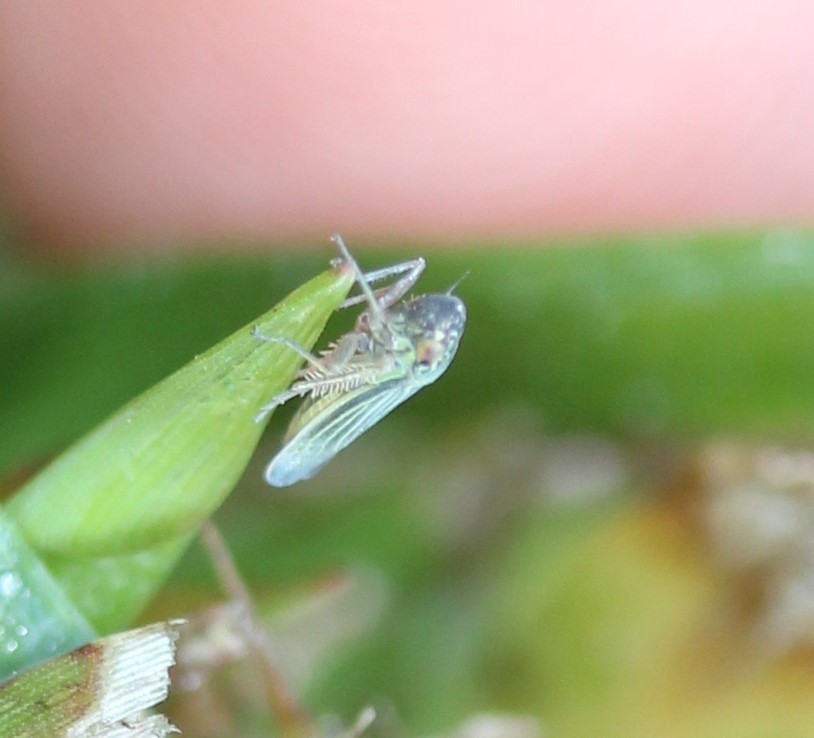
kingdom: Animalia
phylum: Arthropoda
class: Insecta
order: Hemiptera
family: Cicadellidae
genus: Xyphon
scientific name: Xyphon reticulatum
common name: Planthopper
